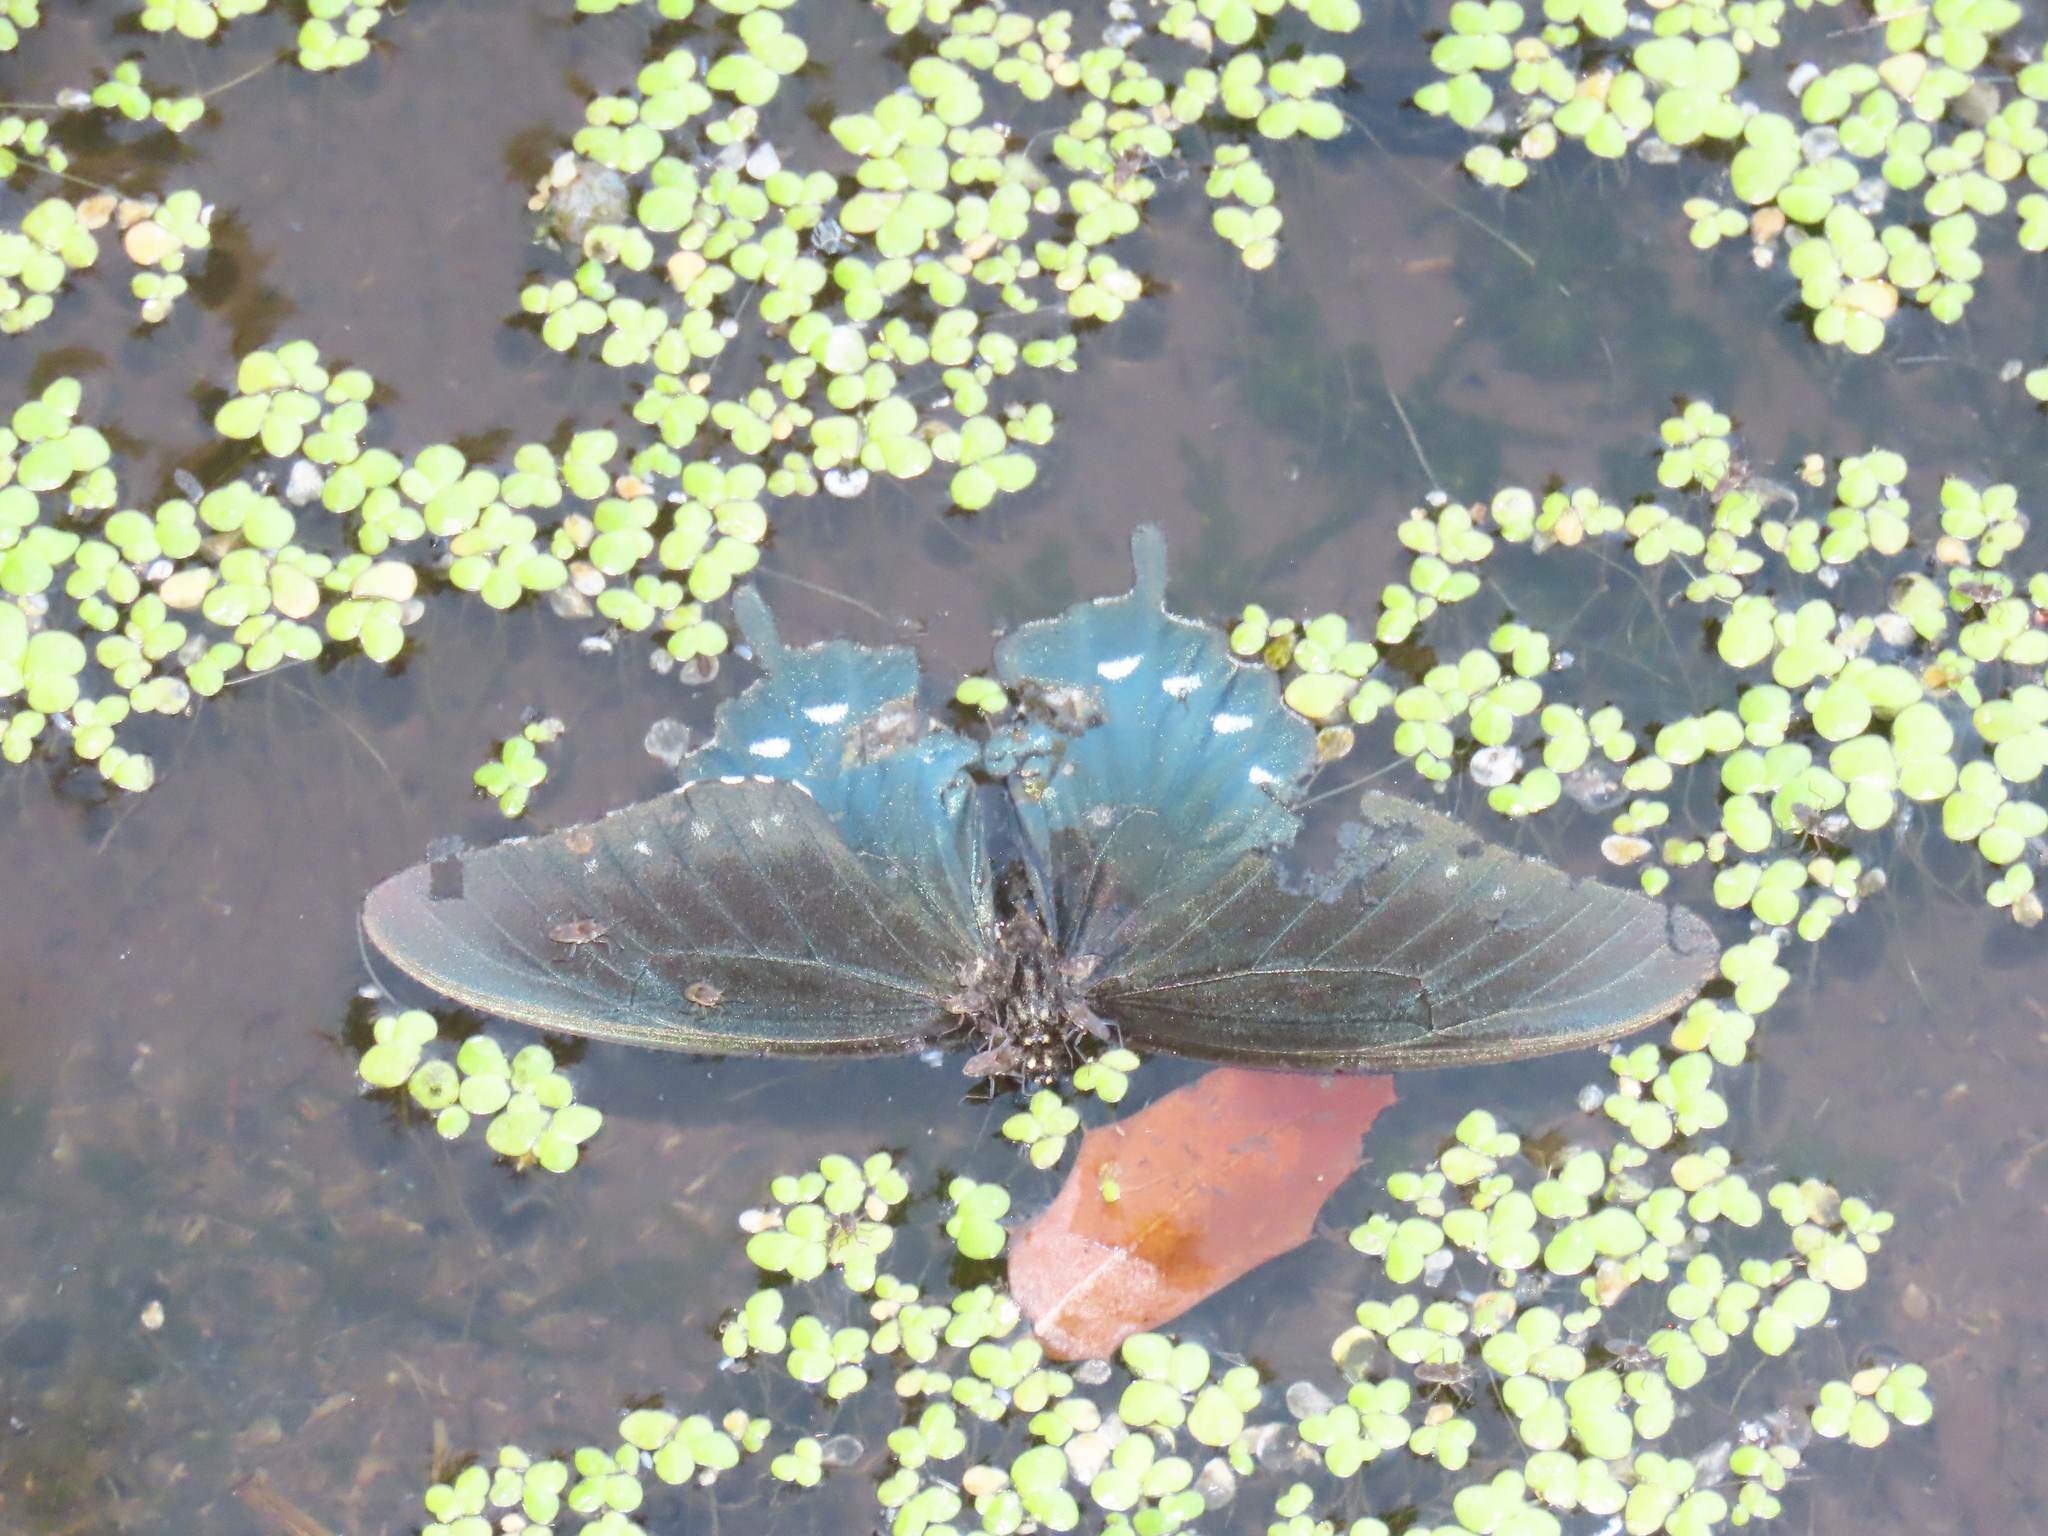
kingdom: Animalia
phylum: Arthropoda
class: Insecta
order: Lepidoptera
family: Papilionidae
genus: Battus
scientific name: Battus philenor
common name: Pipevine swallowtail
